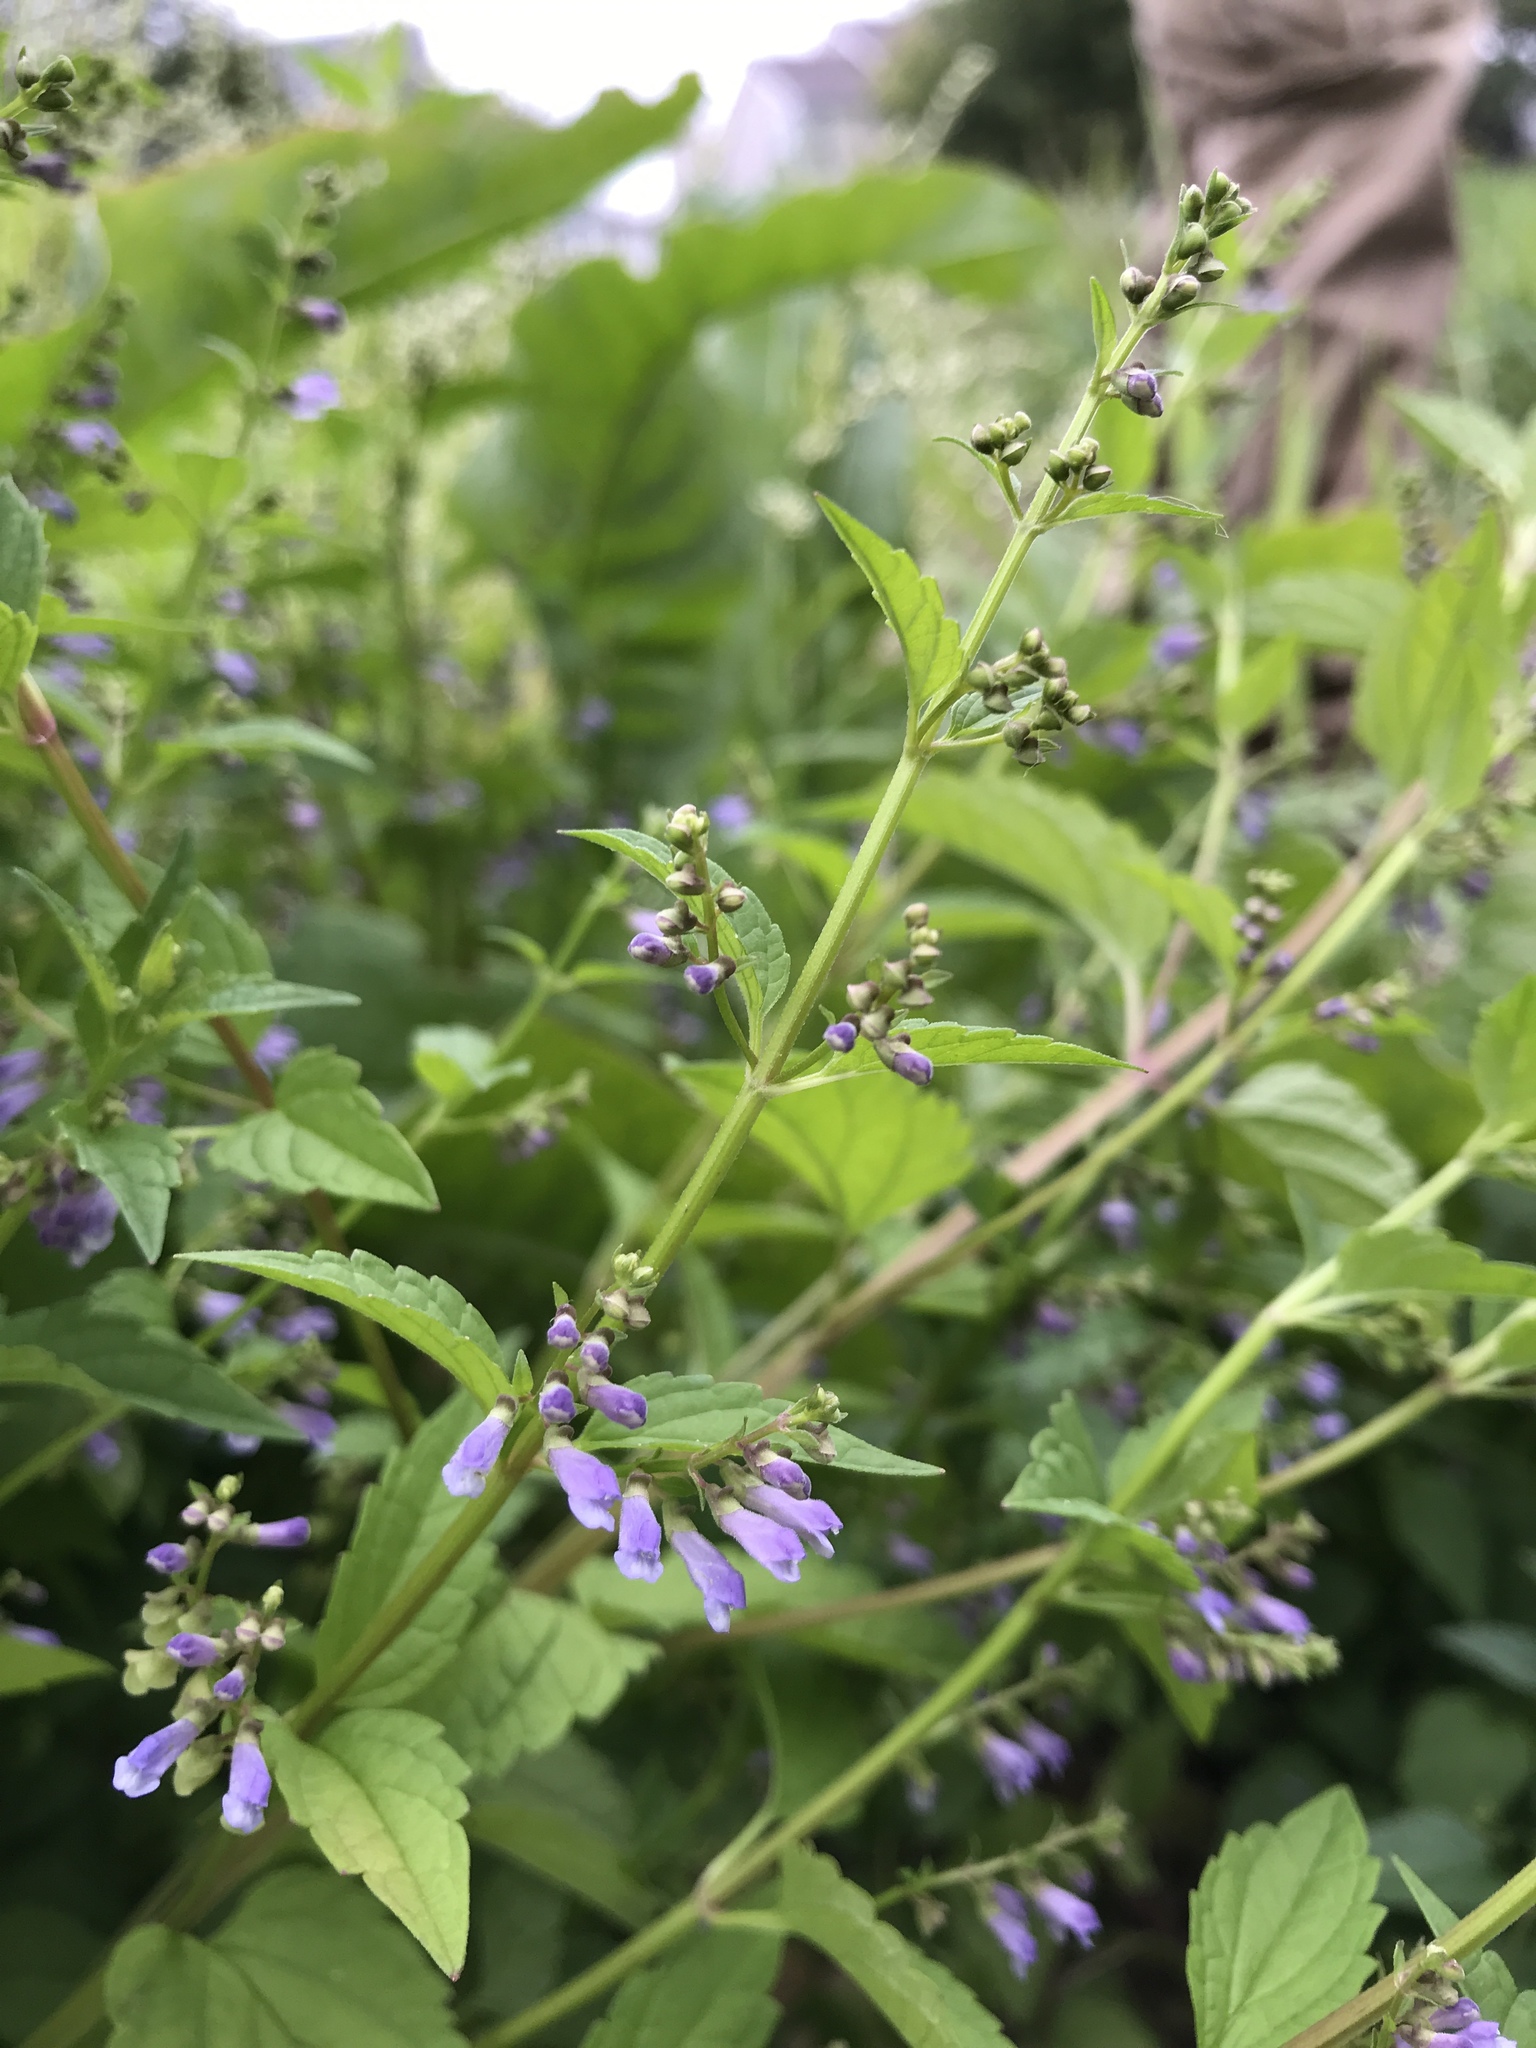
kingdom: Plantae
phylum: Tracheophyta
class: Magnoliopsida
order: Lamiales
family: Lamiaceae
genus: Scutellaria
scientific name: Scutellaria lateriflora
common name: Blue skullcap
